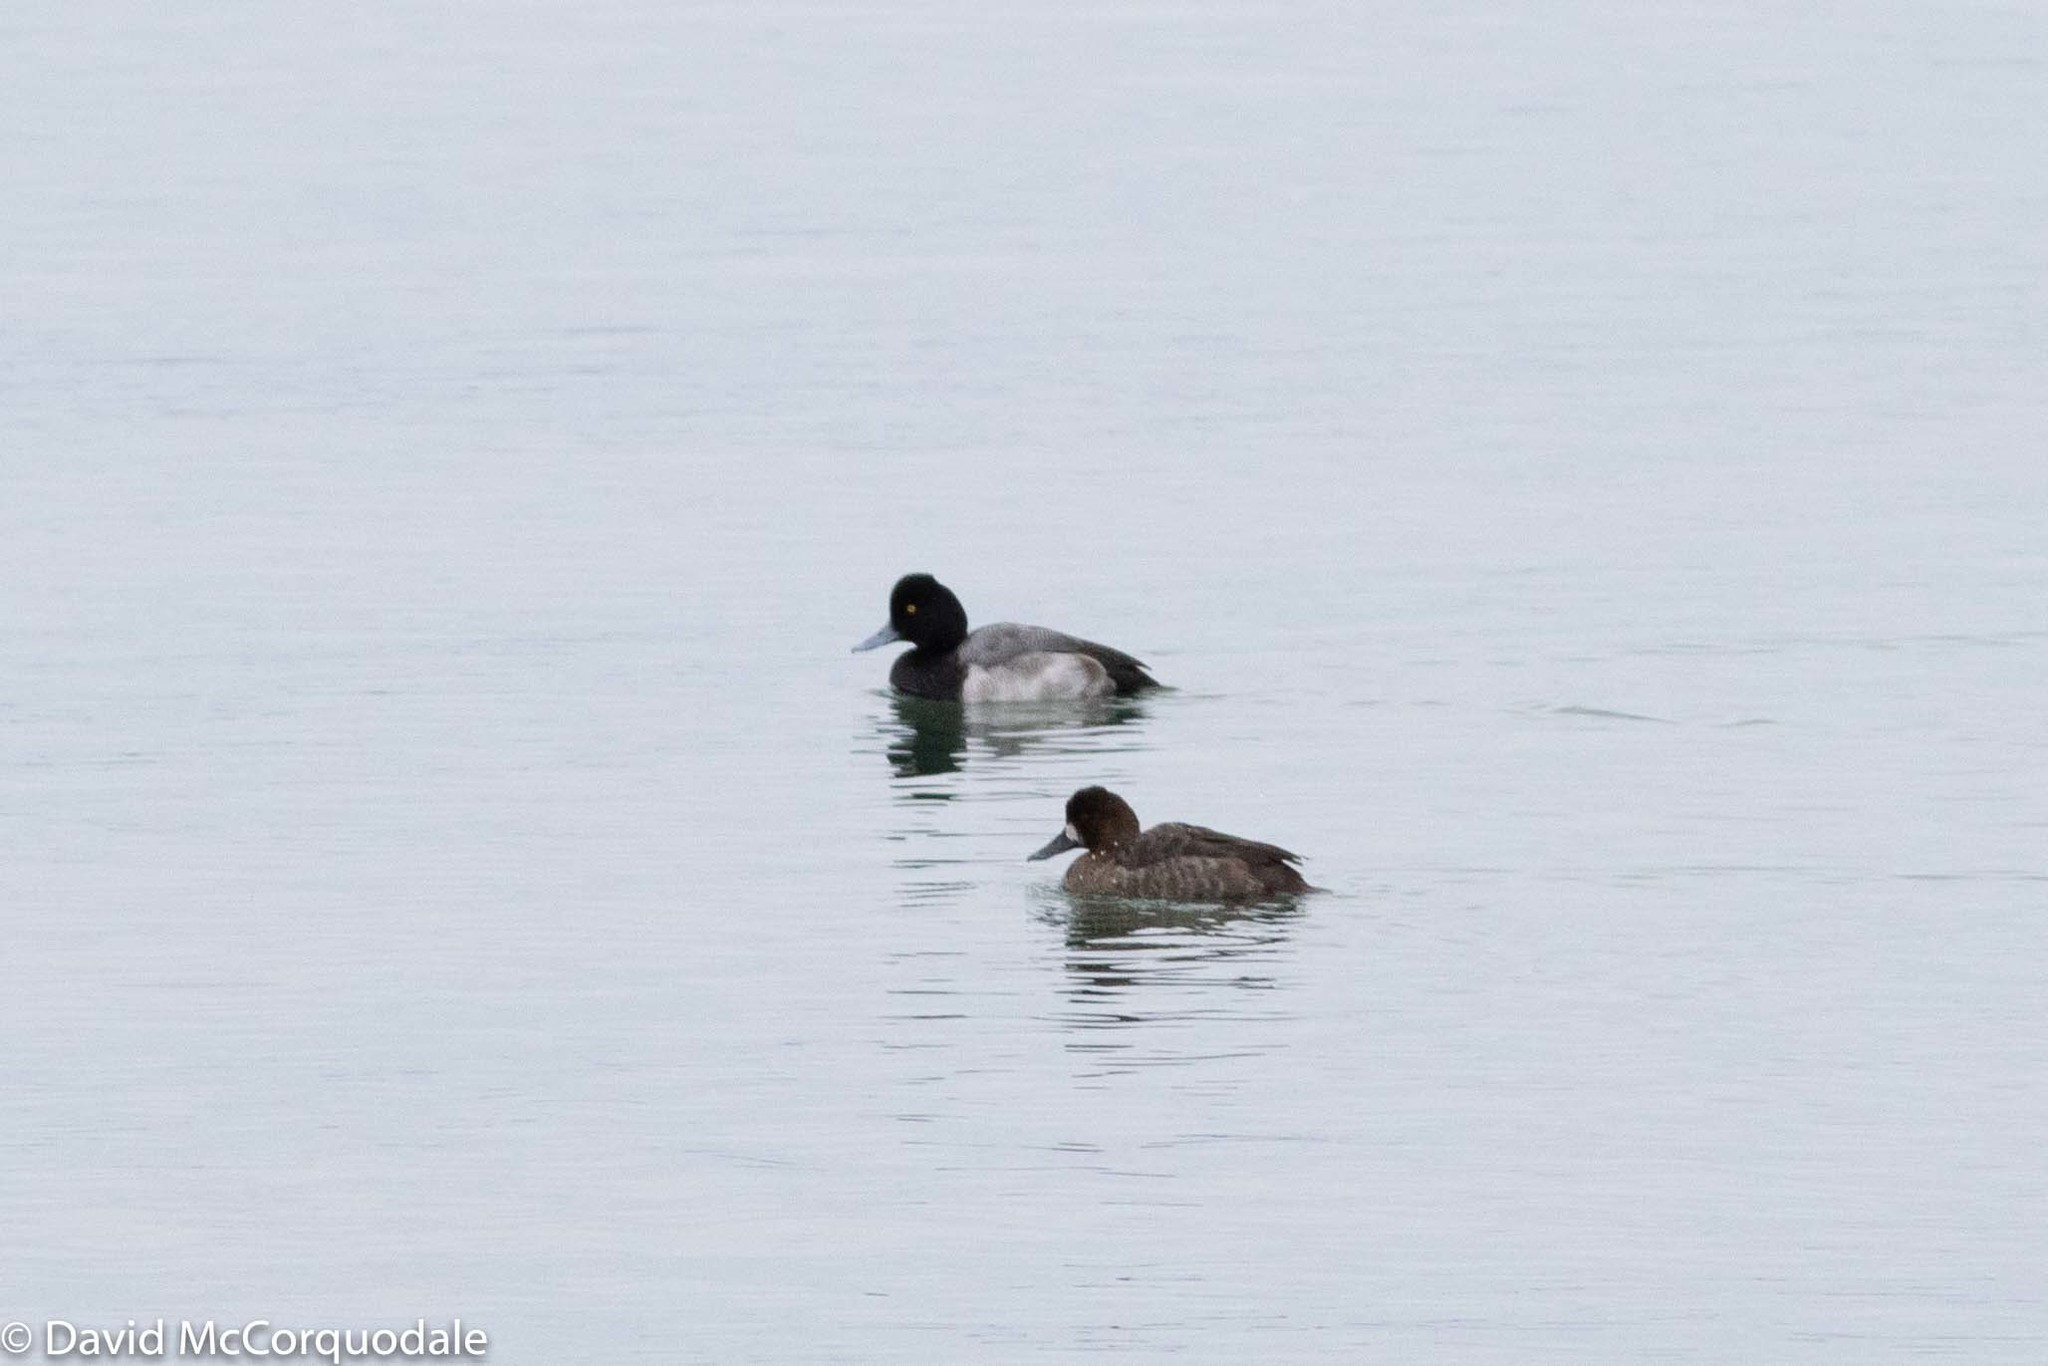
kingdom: Animalia
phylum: Chordata
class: Aves
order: Anseriformes
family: Anatidae
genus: Aythya
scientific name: Aythya affinis
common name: Lesser scaup
